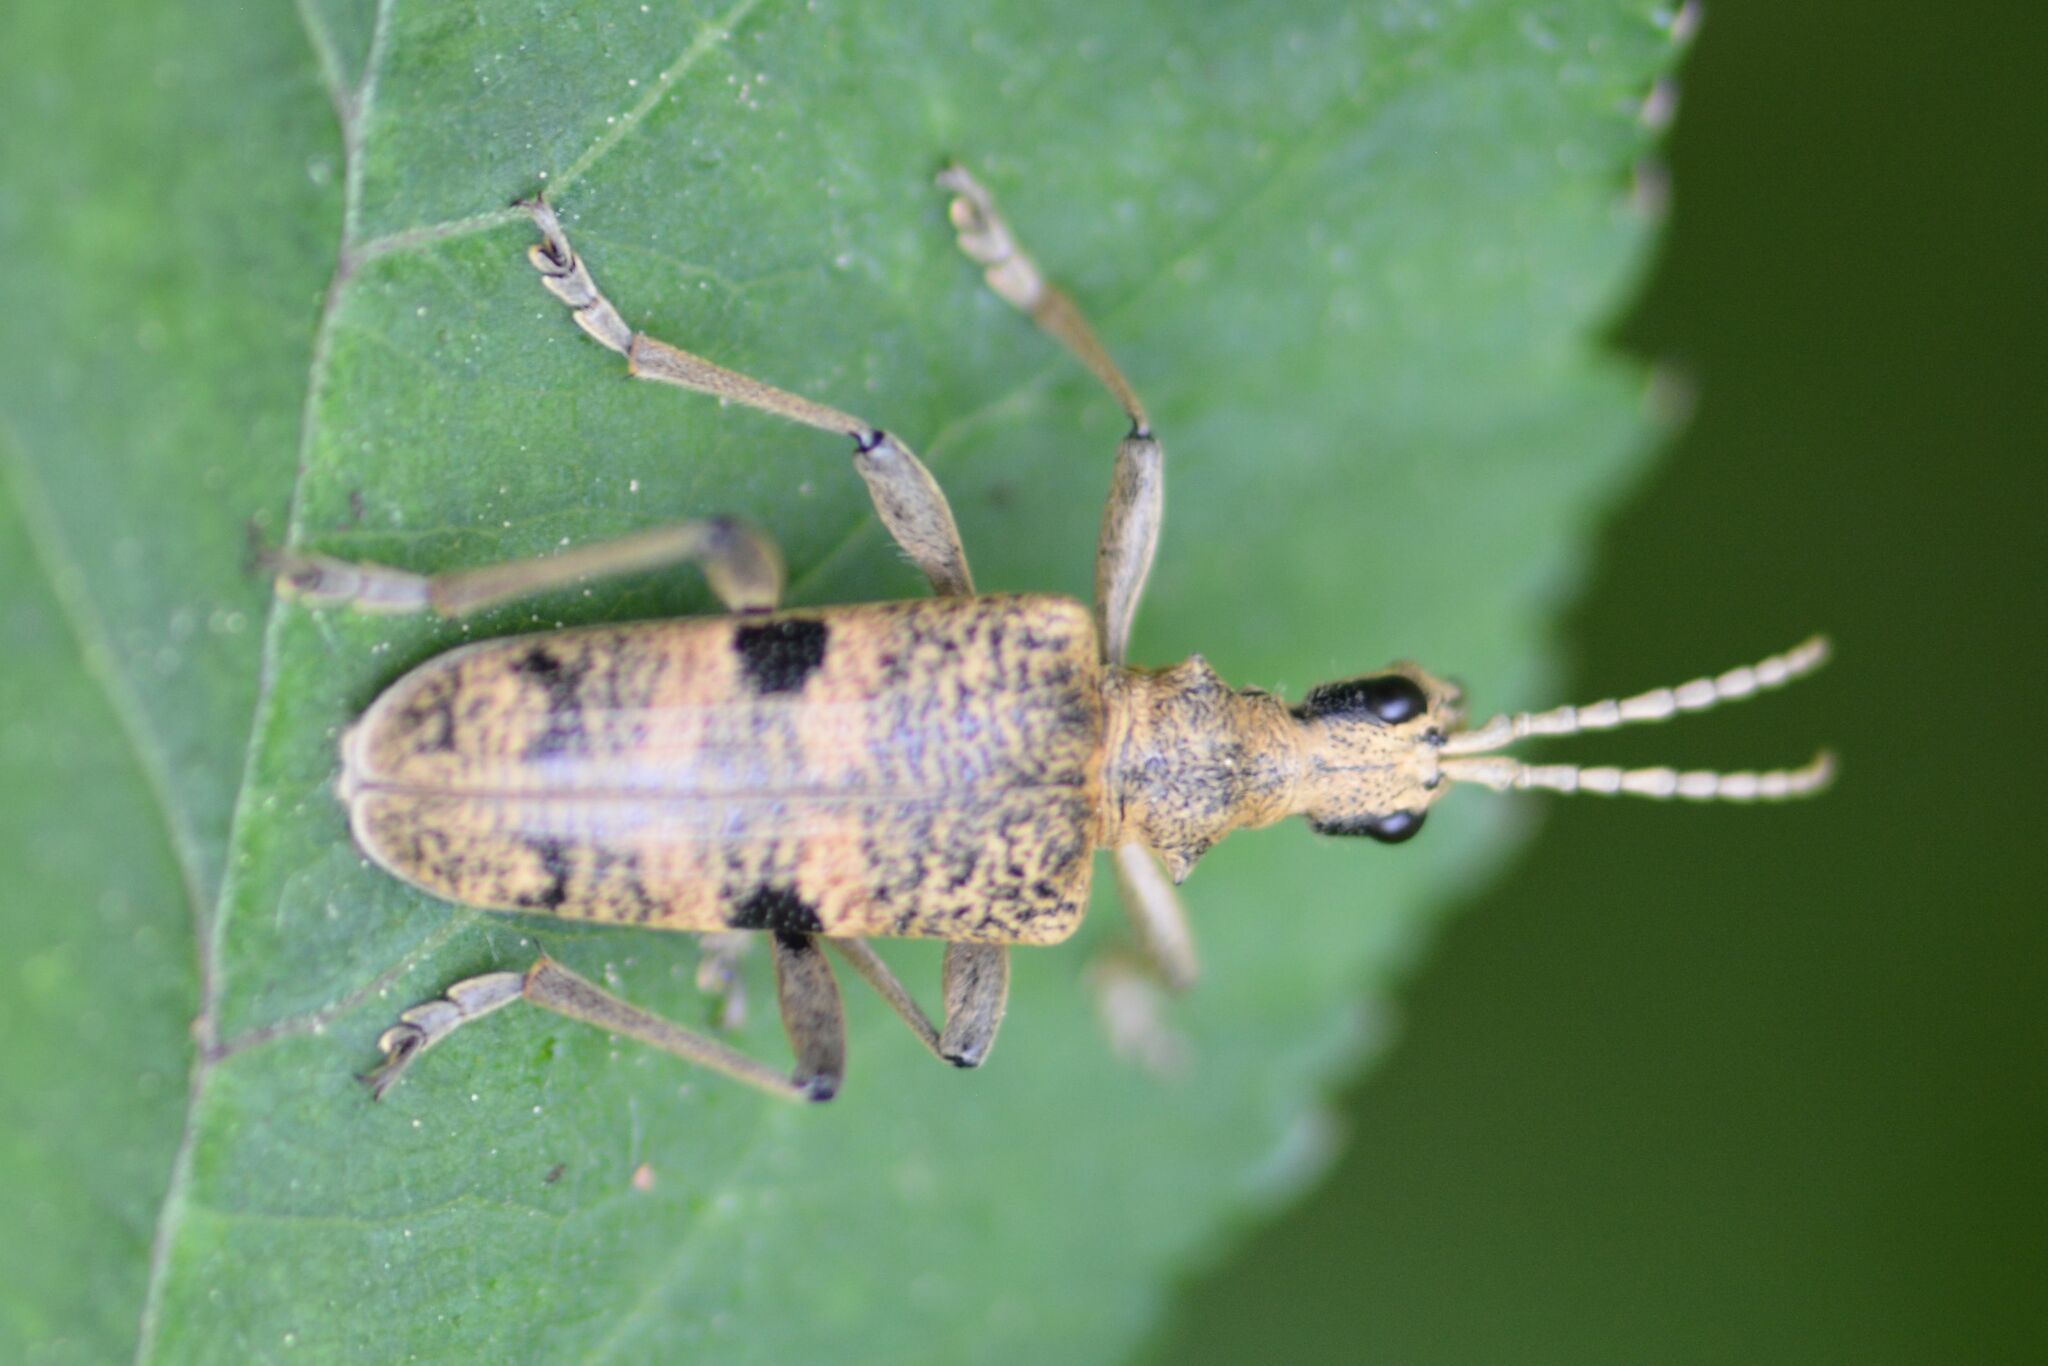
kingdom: Animalia
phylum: Arthropoda
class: Insecta
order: Coleoptera
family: Cerambycidae
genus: Rhagium
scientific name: Rhagium mordax
